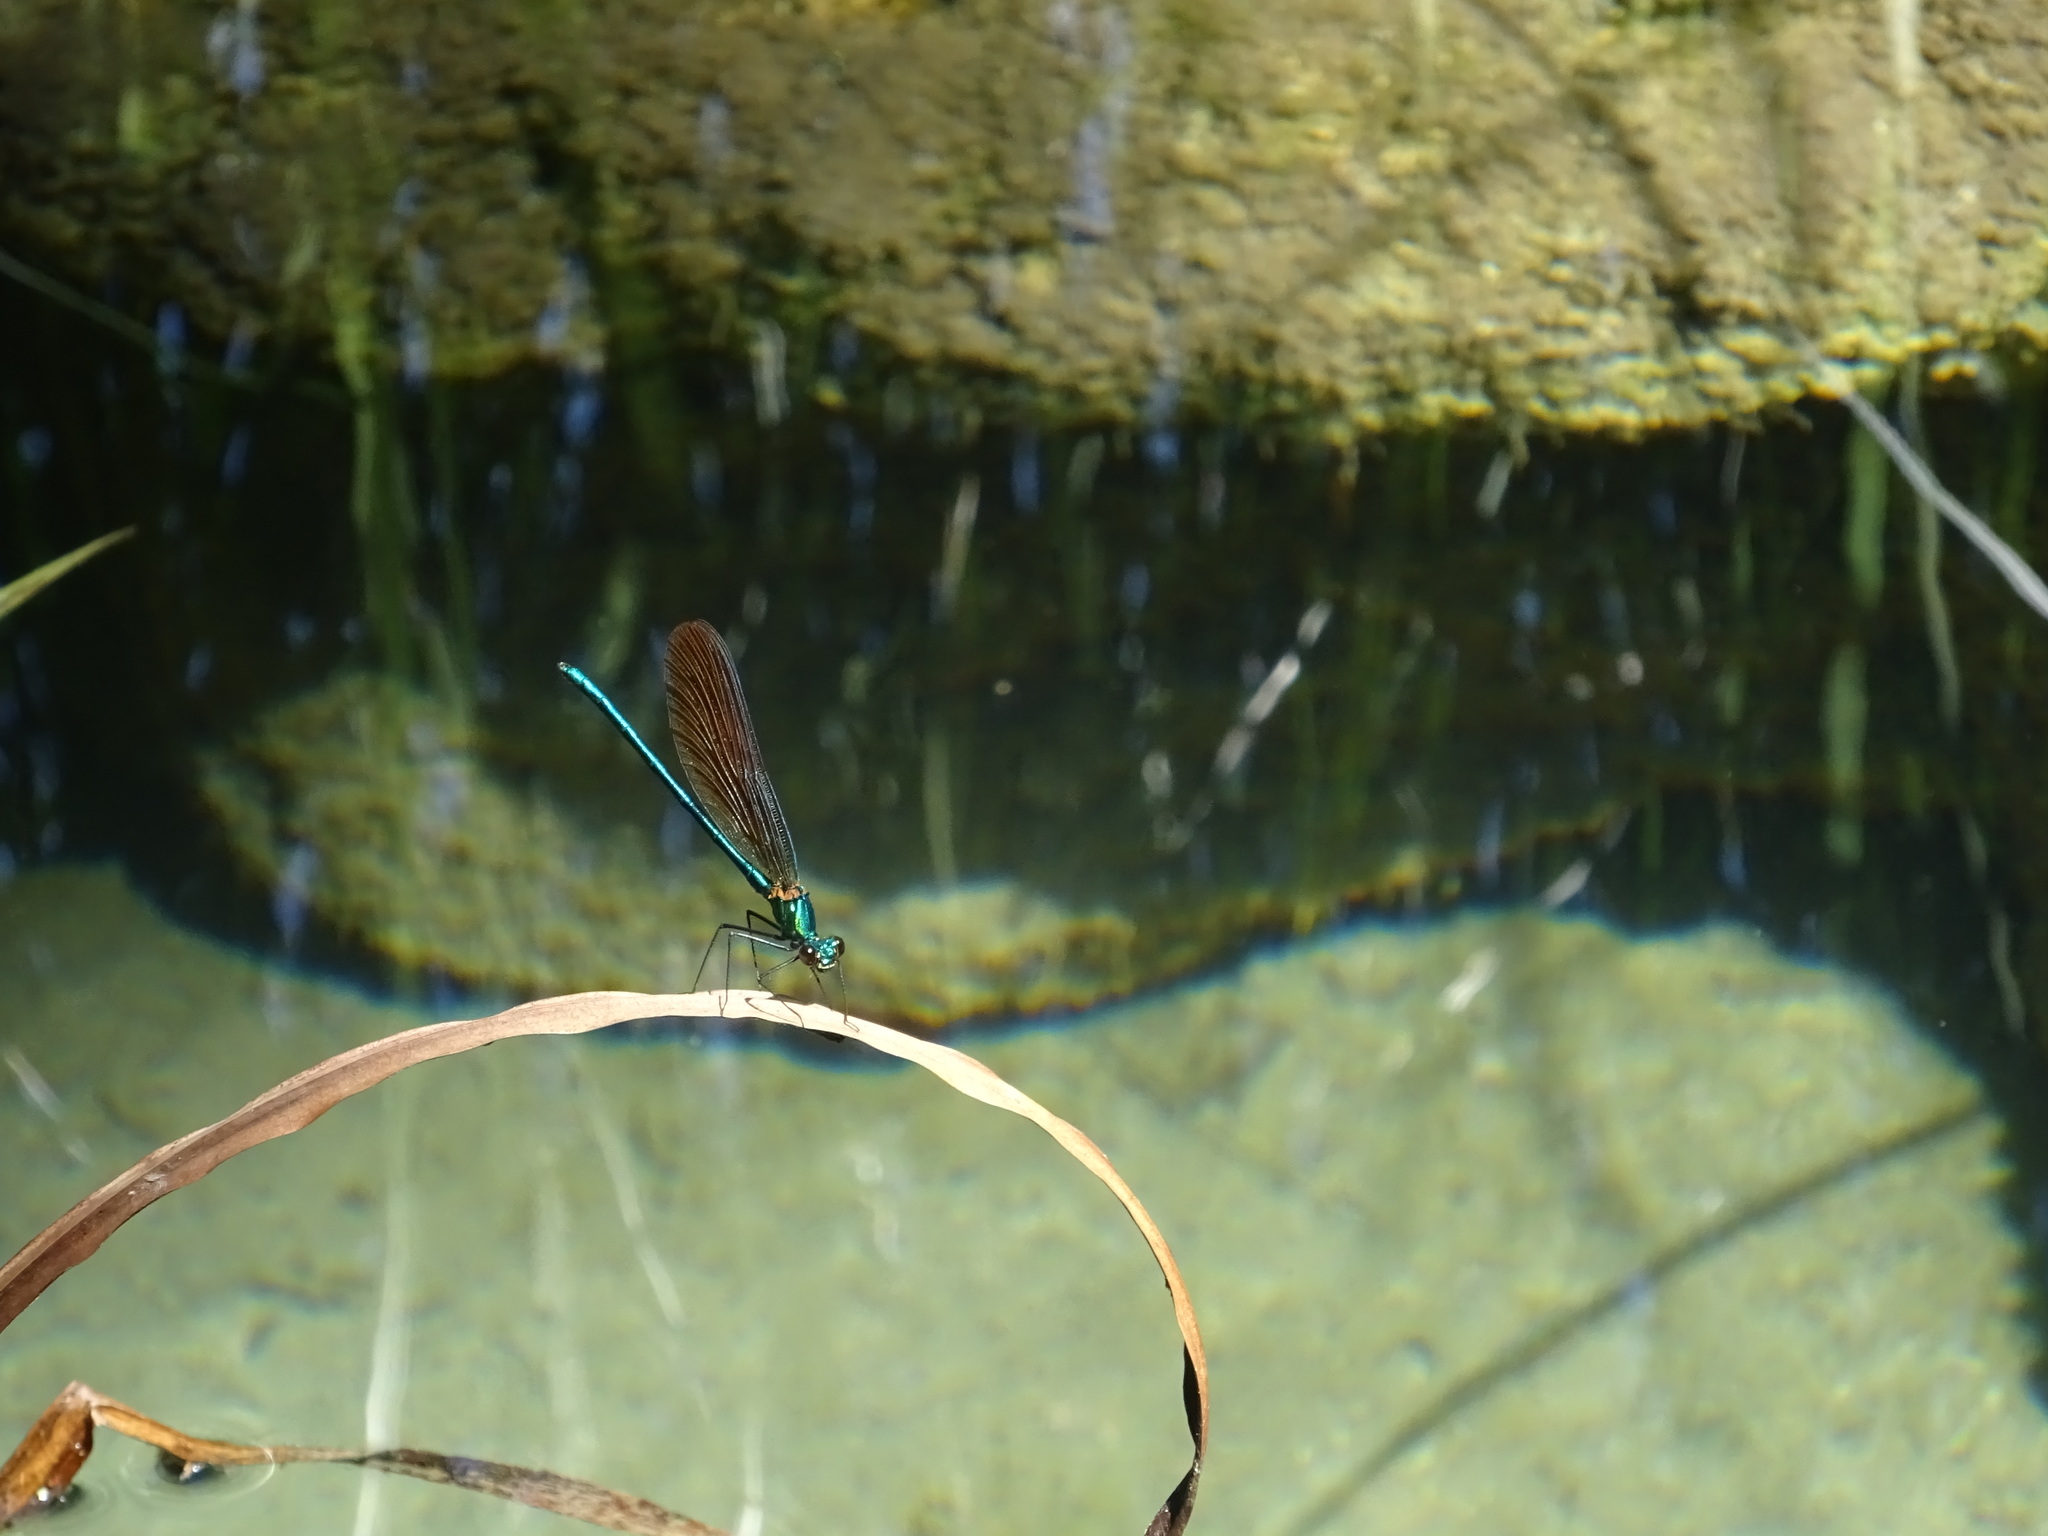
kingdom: Animalia
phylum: Arthropoda
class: Insecta
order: Odonata
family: Calopterygidae
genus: Calopteryx
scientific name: Calopteryx virgo
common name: Beautiful demoiselle
